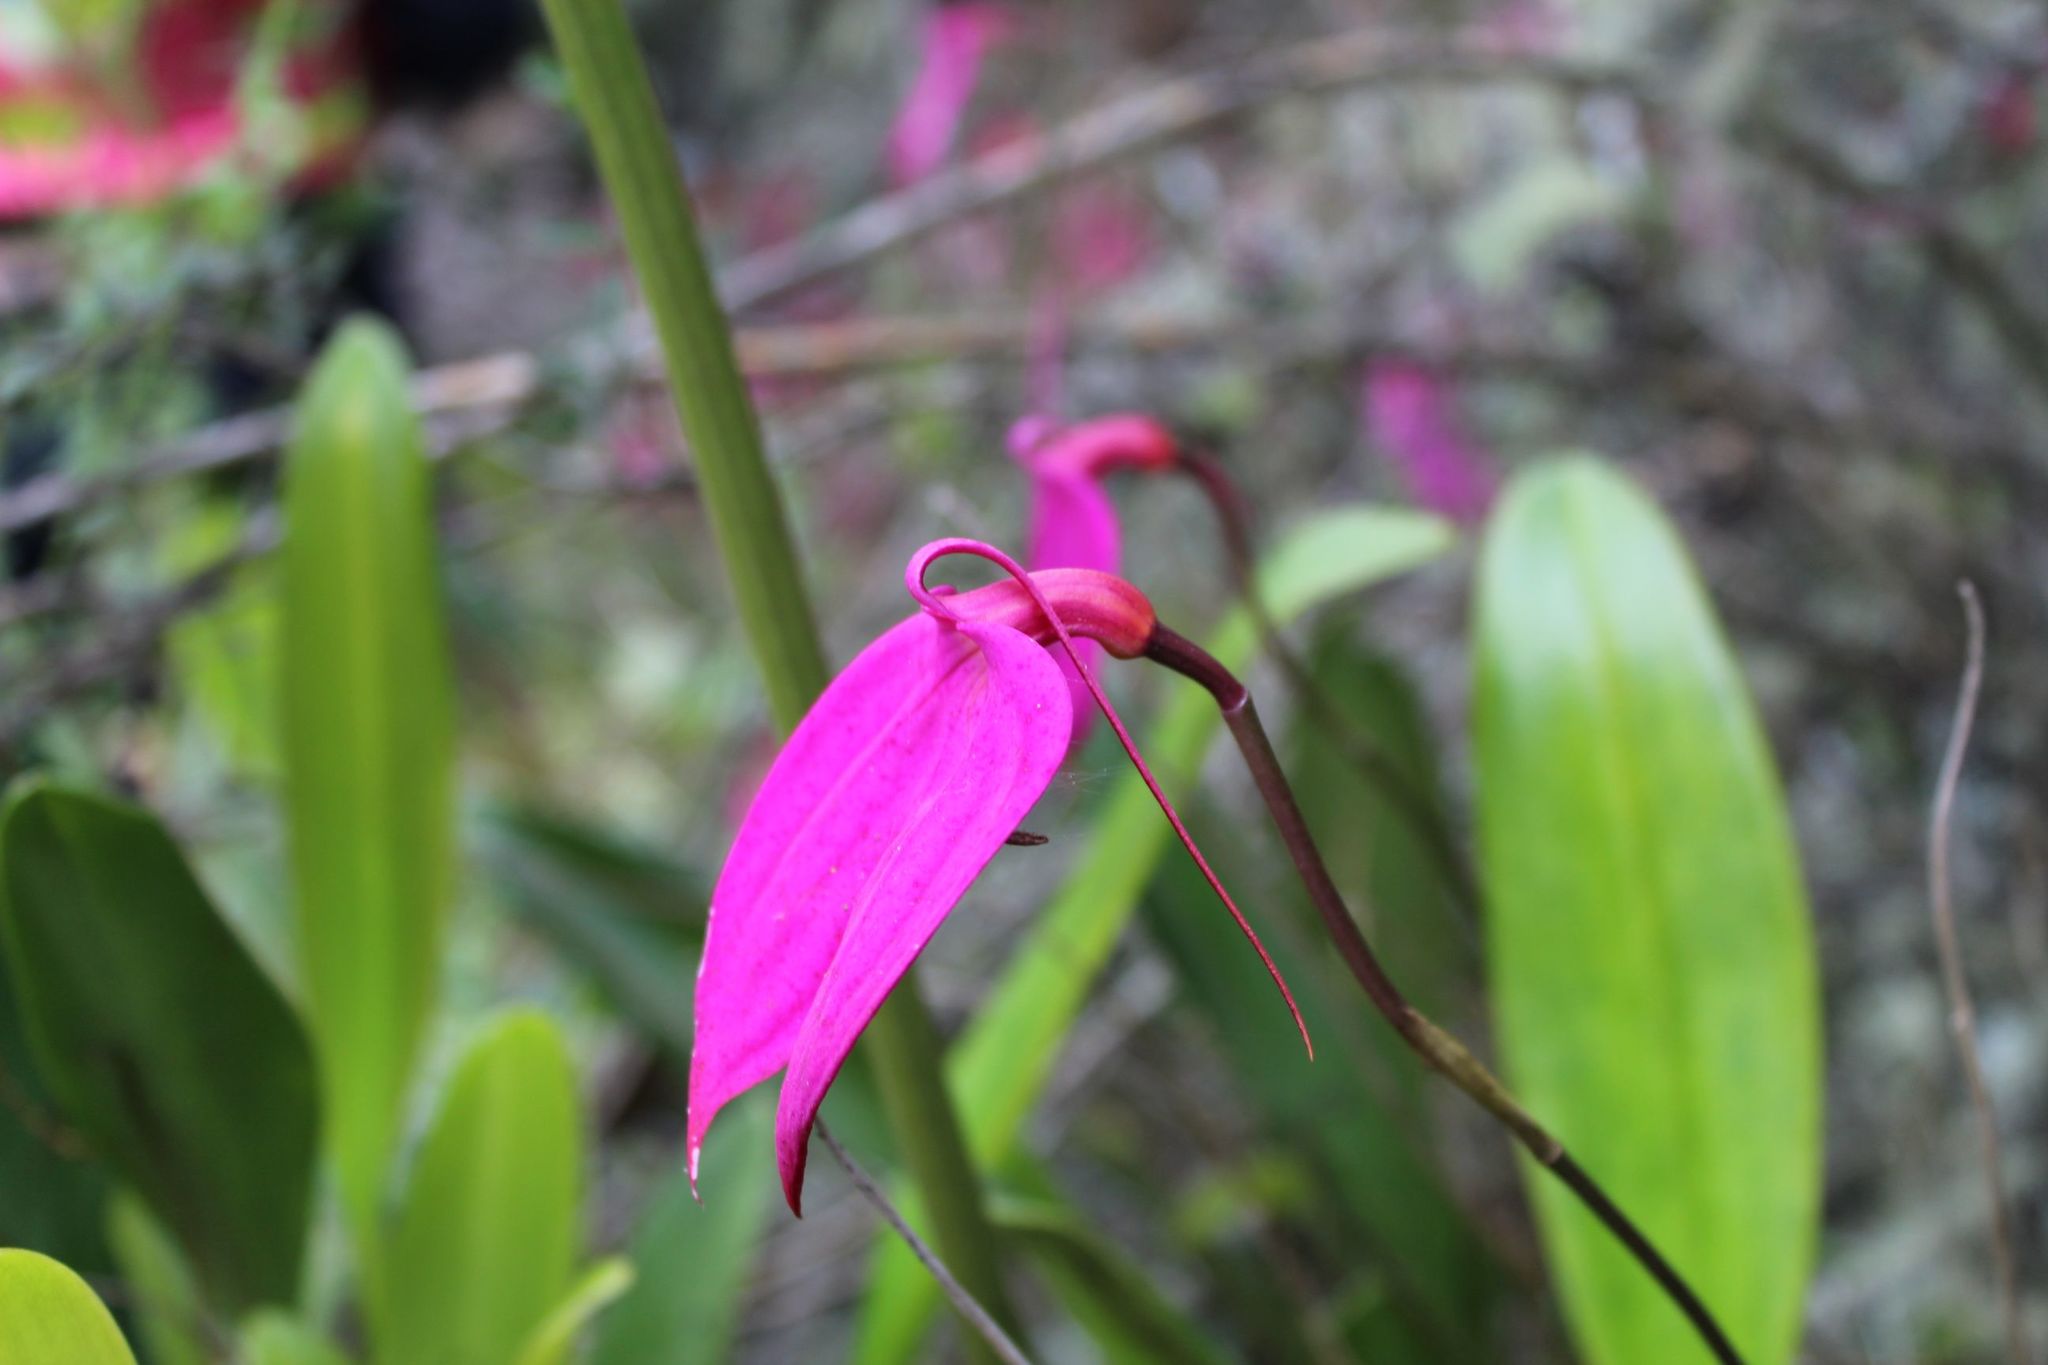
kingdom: Plantae
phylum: Tracheophyta
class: Liliopsida
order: Asparagales
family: Orchidaceae
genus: Masdevallia
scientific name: Masdevallia coccinea
